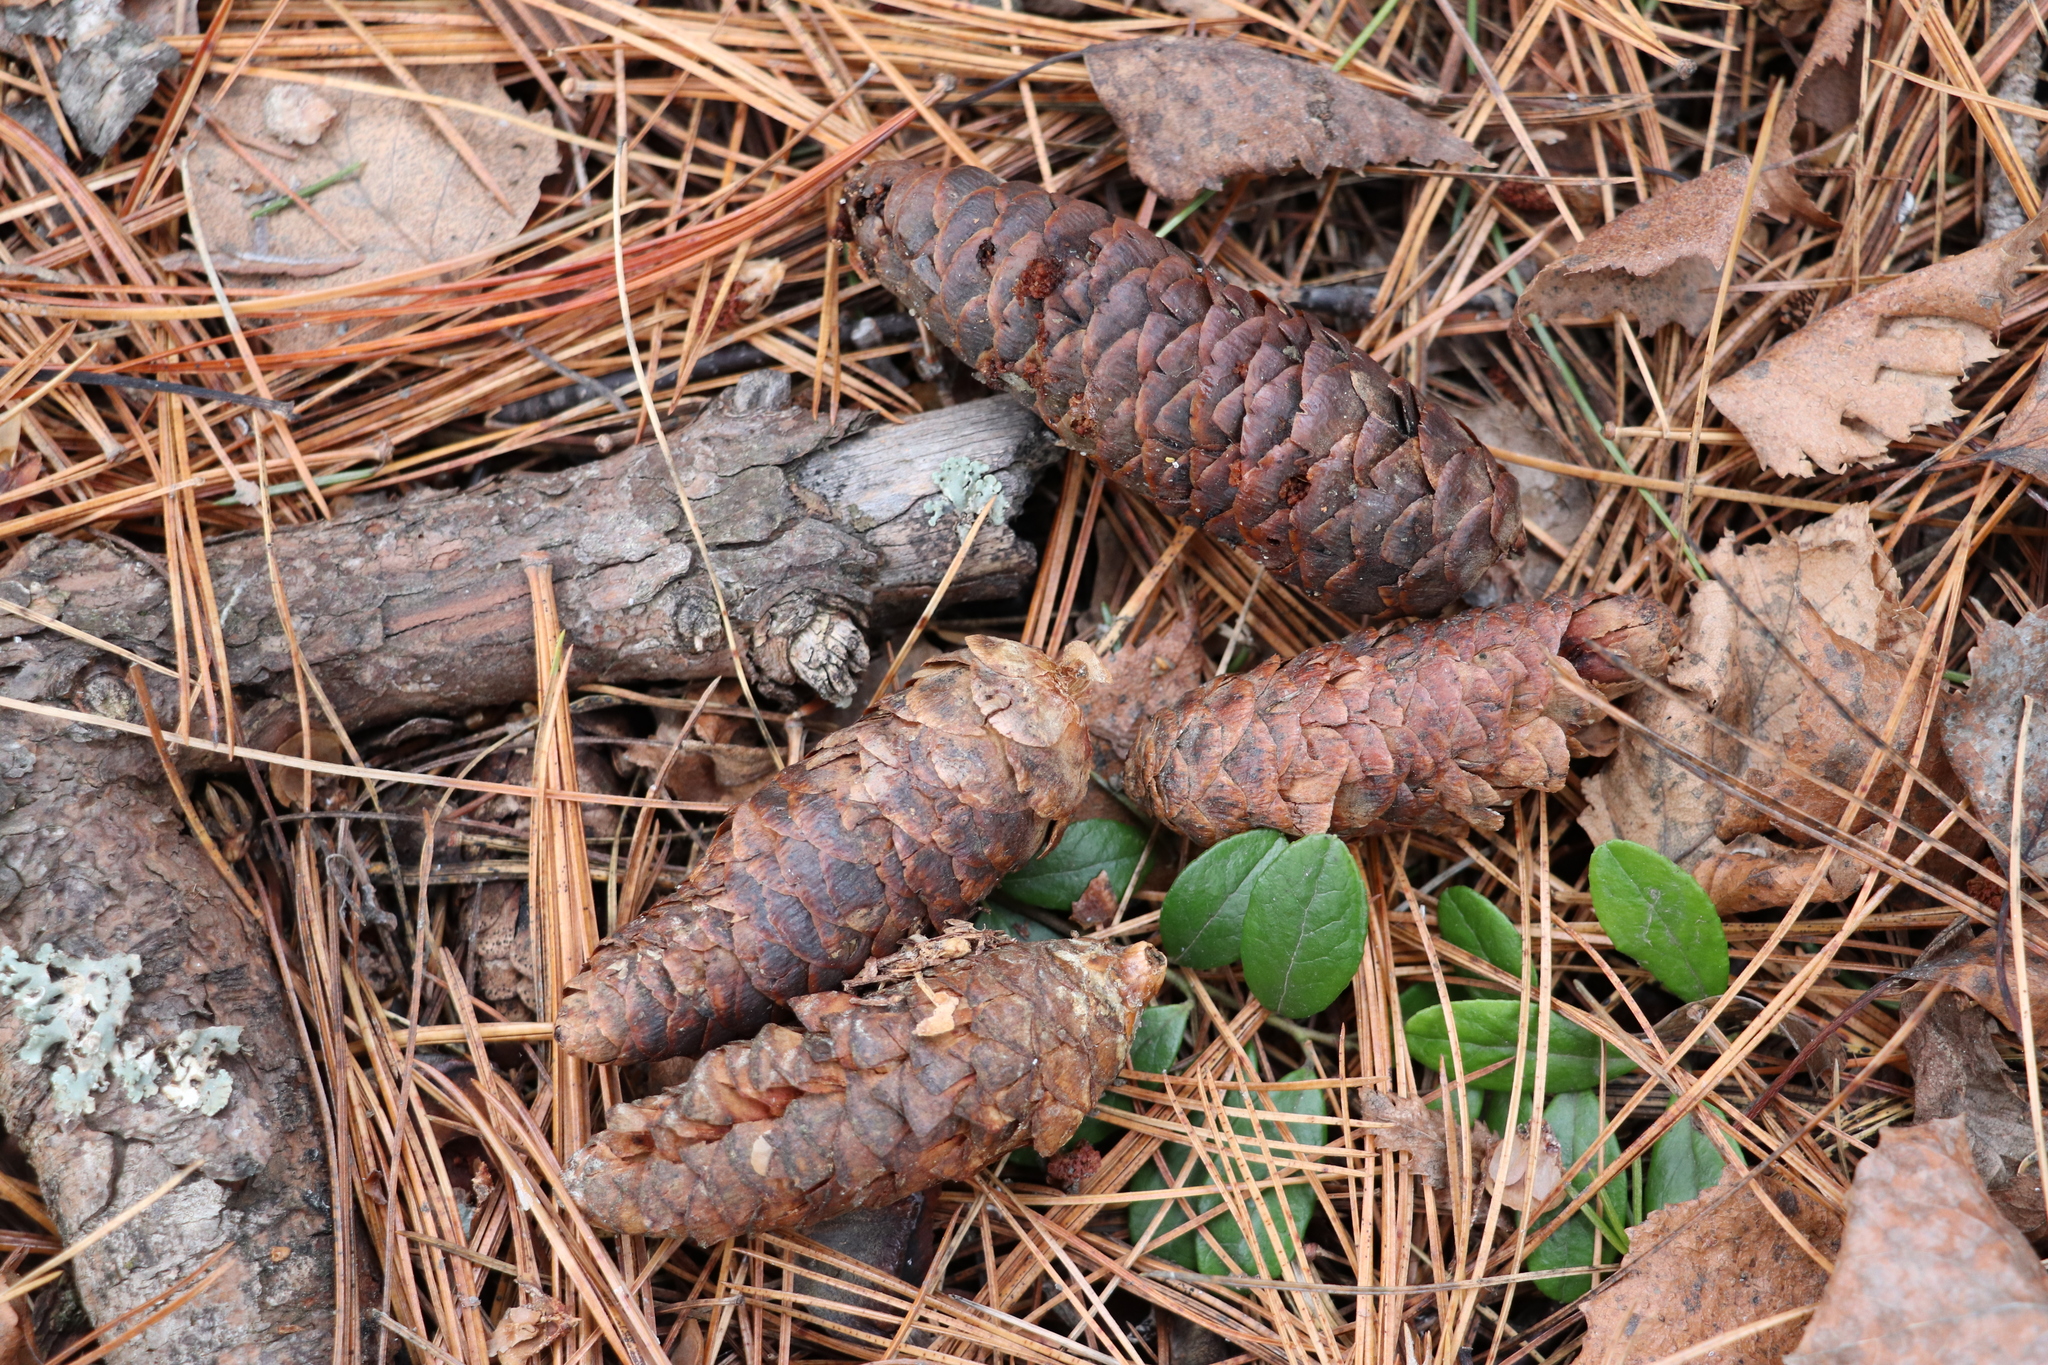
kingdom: Plantae
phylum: Tracheophyta
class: Pinopsida
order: Pinales
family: Pinaceae
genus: Picea
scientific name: Picea obovata
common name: Siberian spruce
